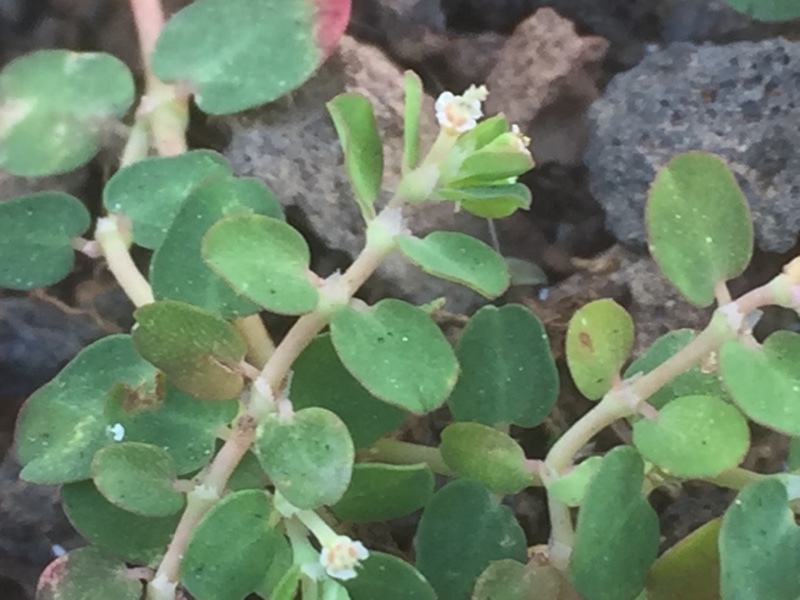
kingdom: Plantae
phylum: Tracheophyta
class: Magnoliopsida
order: Malpighiales
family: Euphorbiaceae
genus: Euphorbia
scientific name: Euphorbia serpens
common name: Matted sandmat
